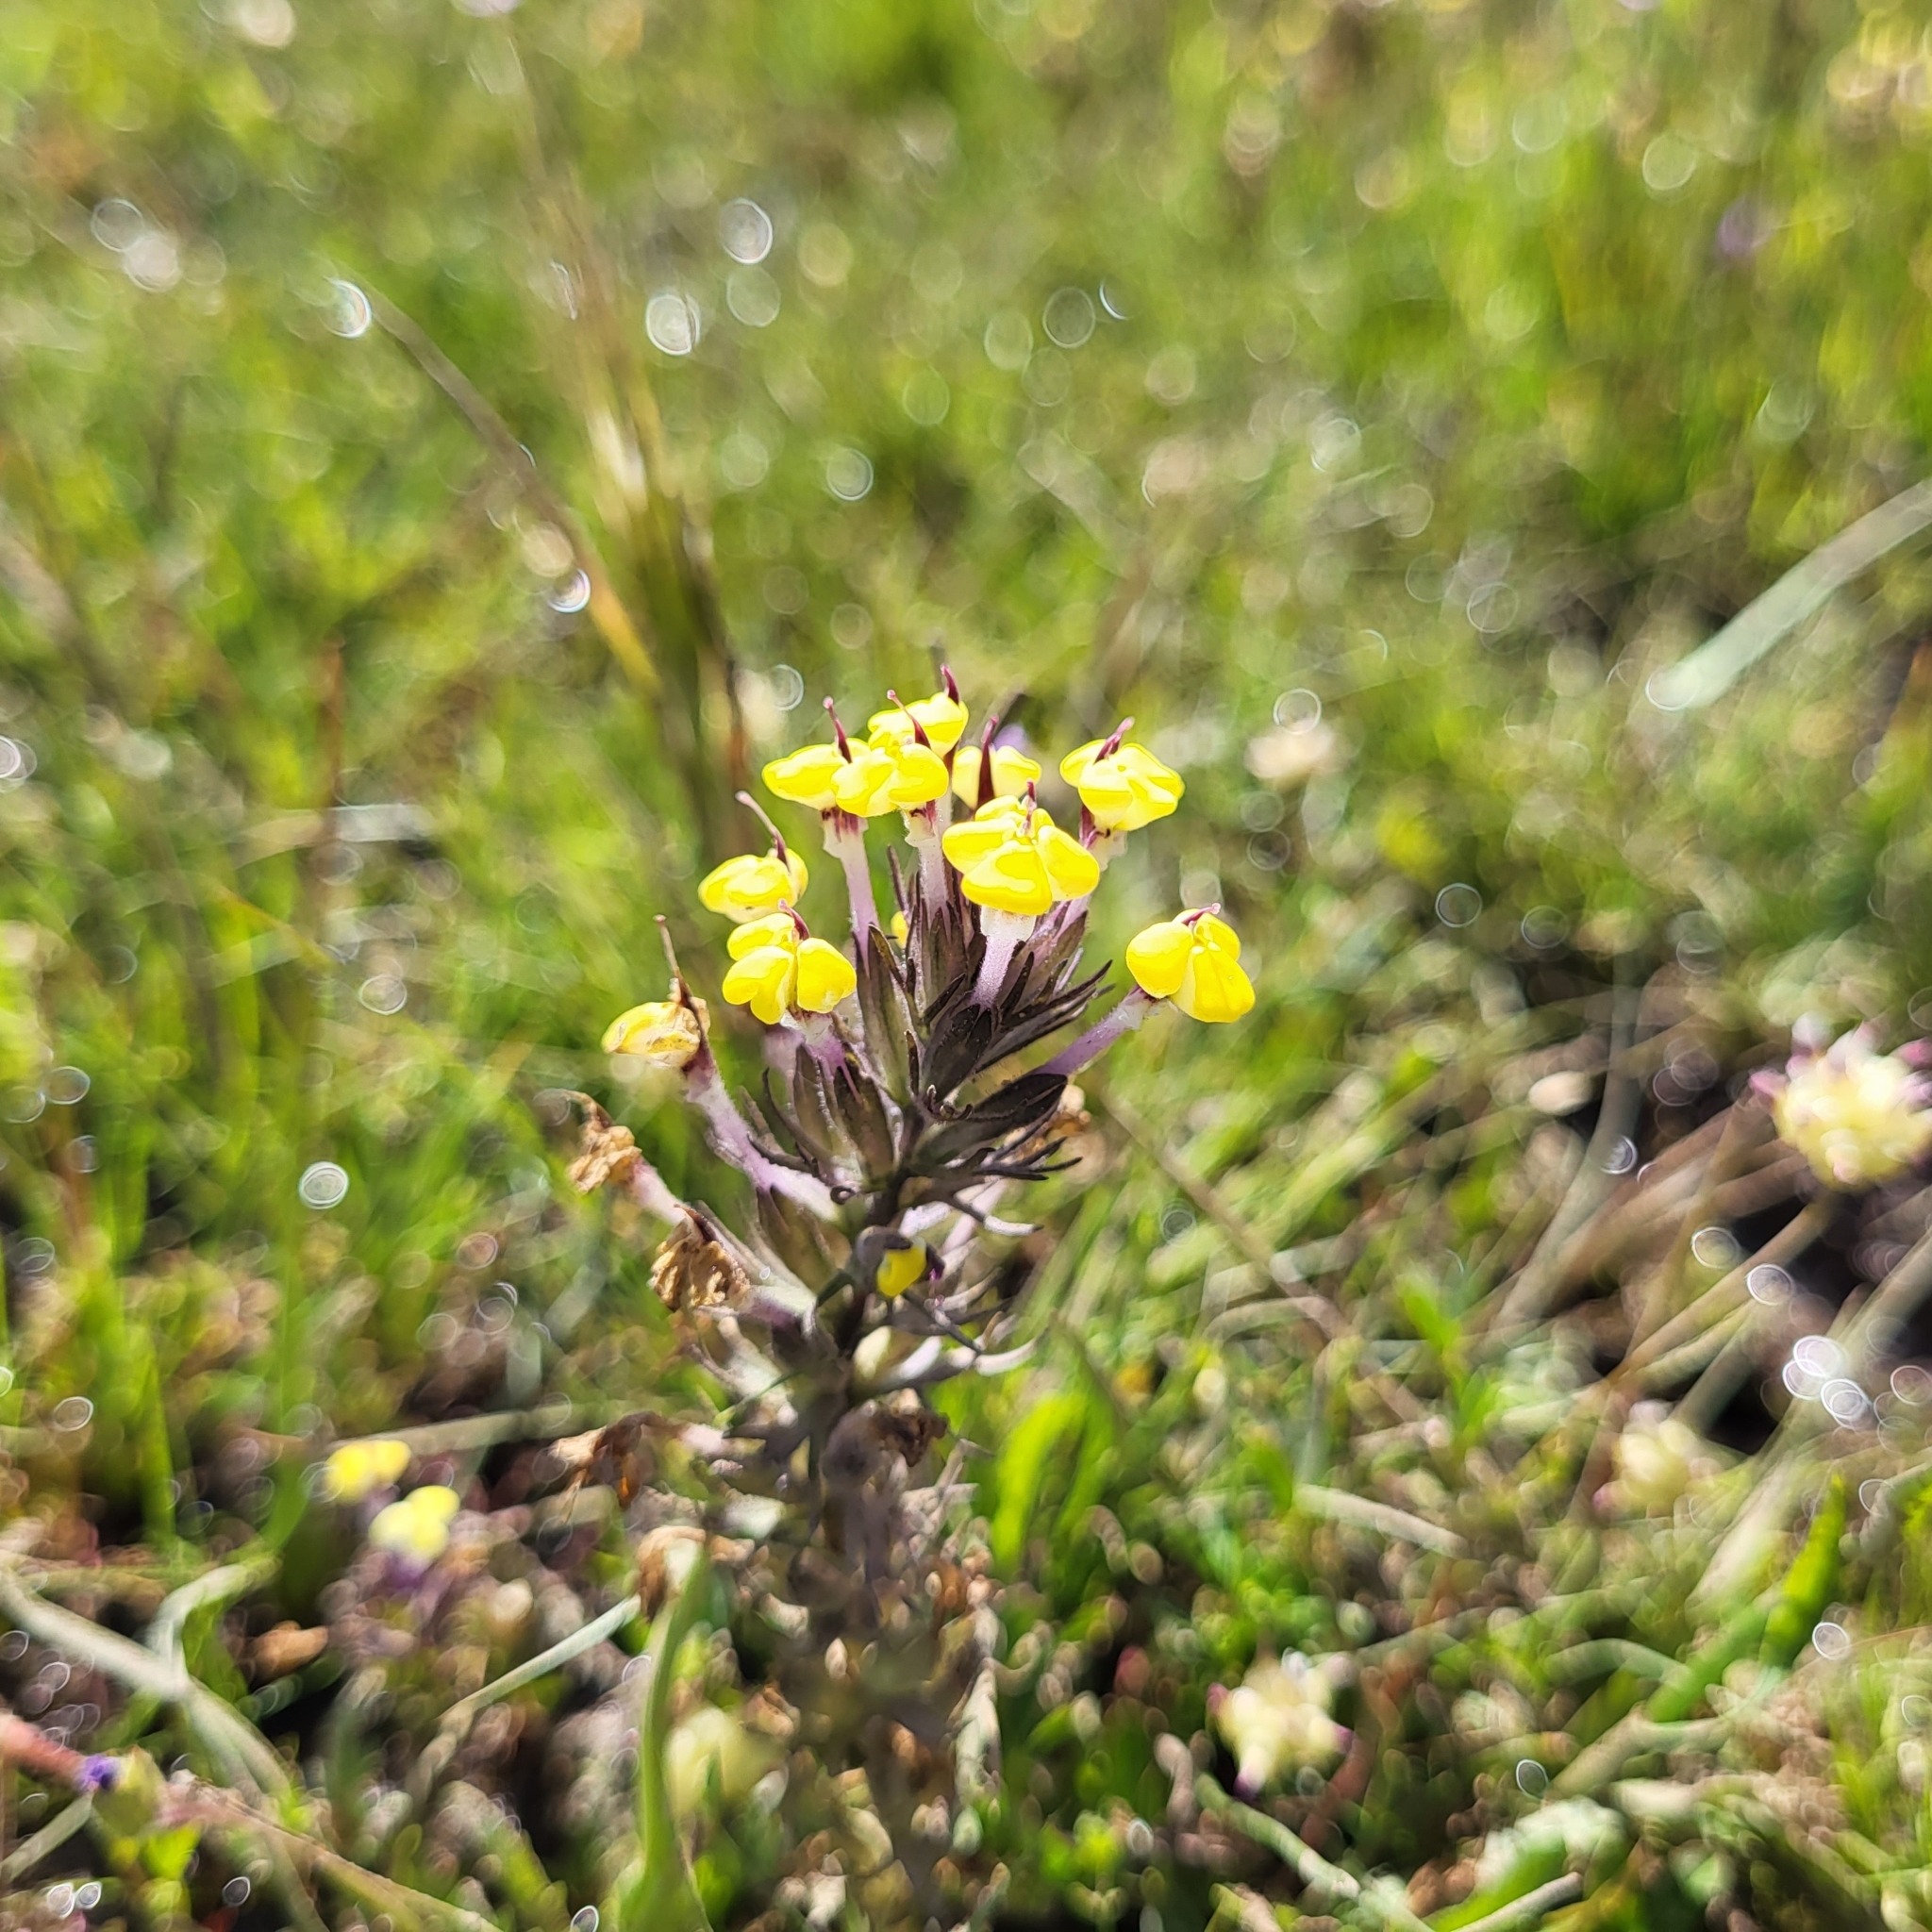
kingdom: Plantae
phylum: Tracheophyta
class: Magnoliopsida
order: Lamiales
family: Orobanchaceae
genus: Triphysaria
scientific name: Triphysaria eriantha
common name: Johnny-tuck
